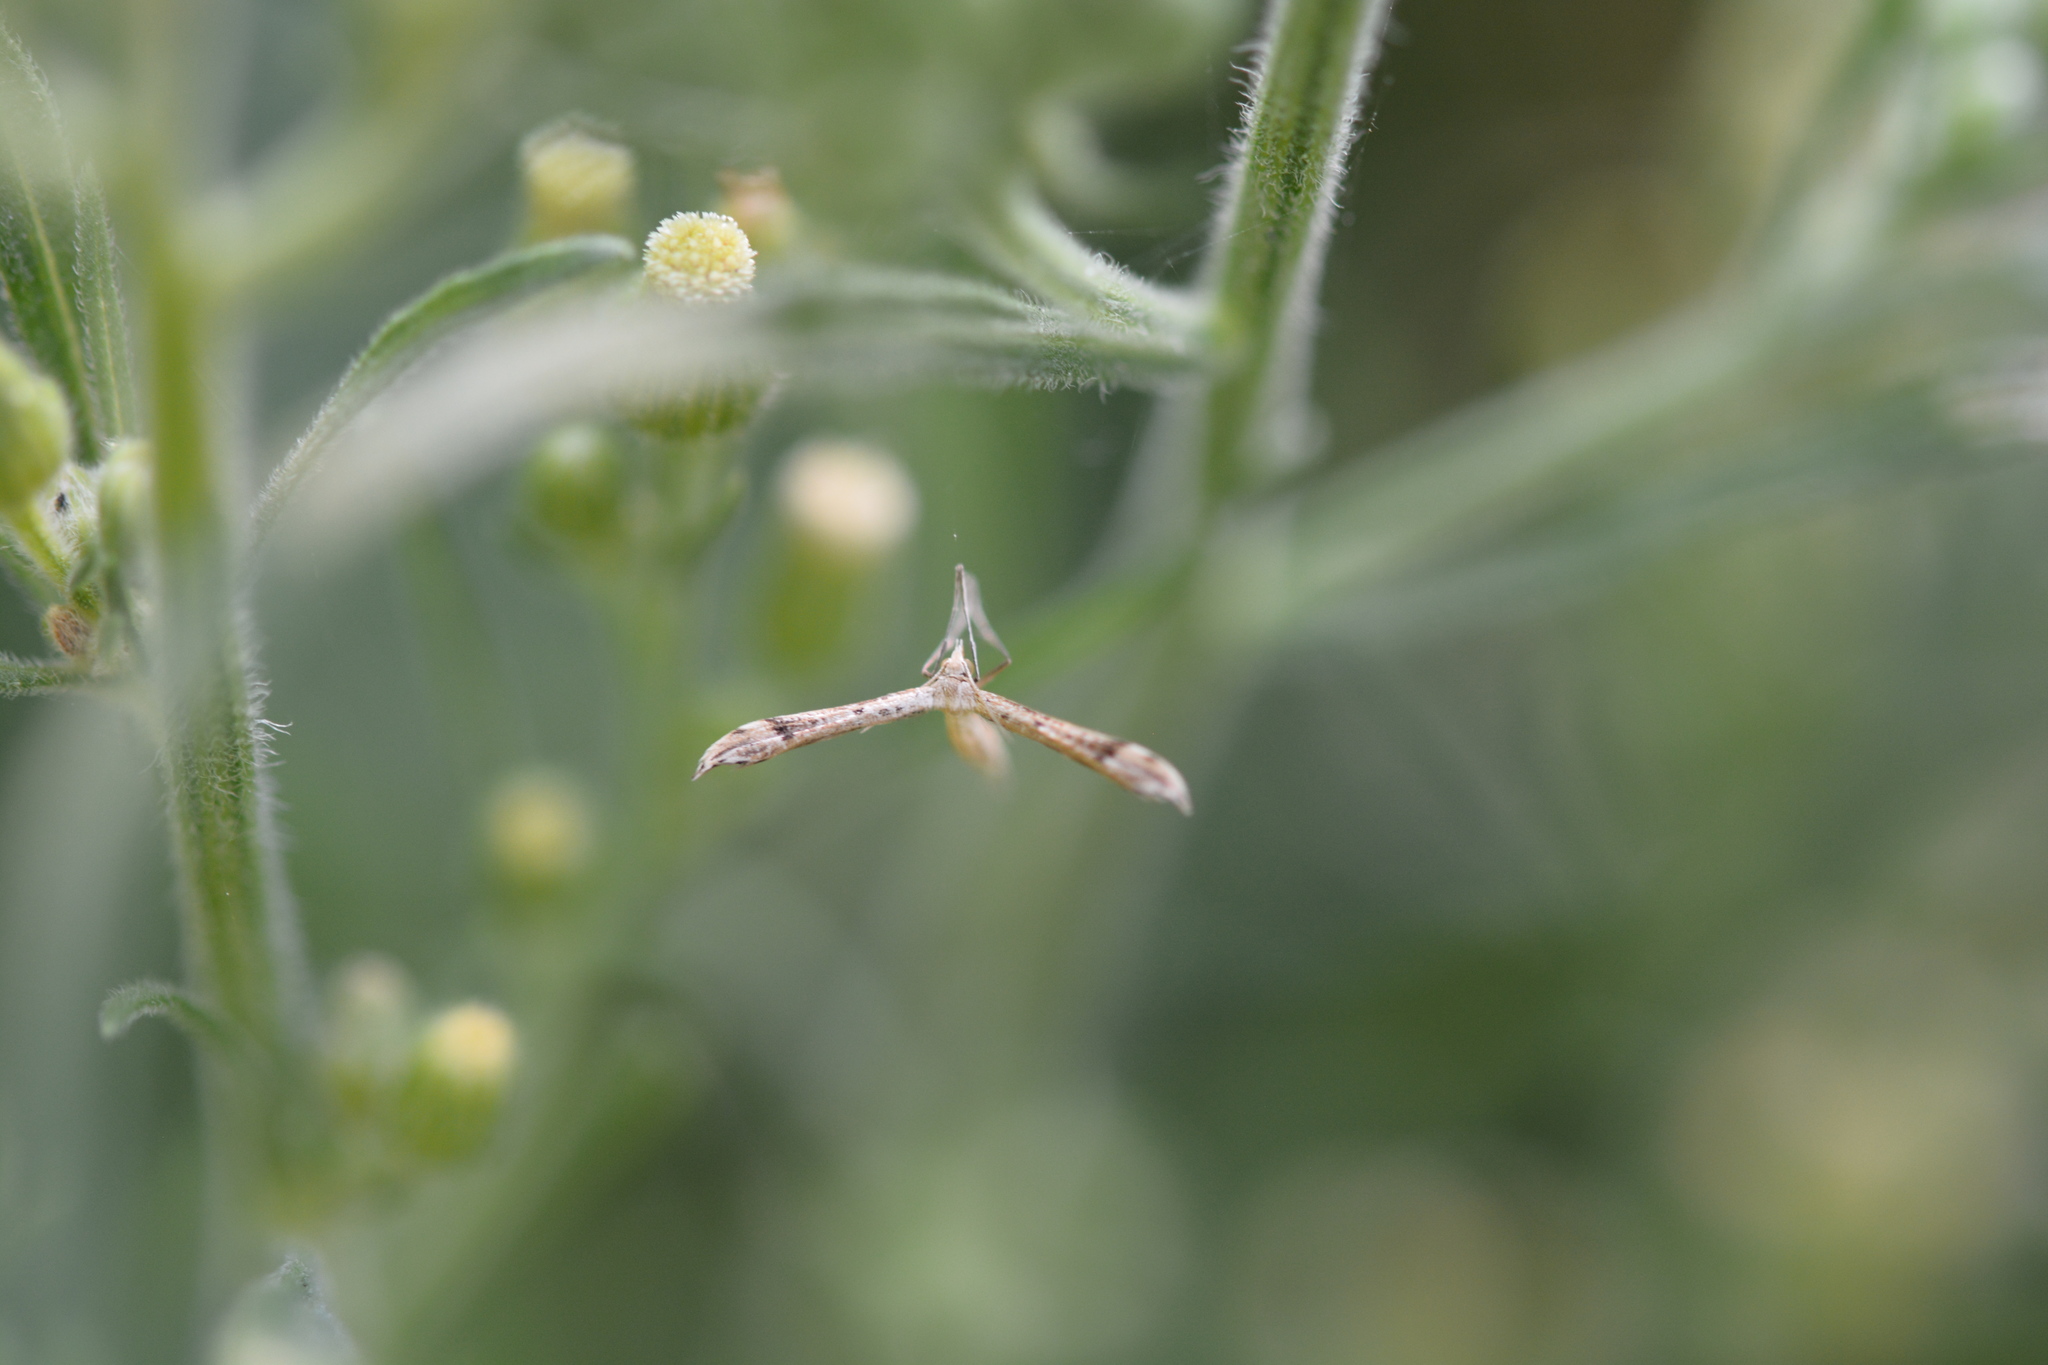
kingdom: Animalia
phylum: Arthropoda
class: Insecta
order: Lepidoptera
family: Pterophoridae
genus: Lioptilodes
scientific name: Lioptilodes albistriolatus
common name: Moth
